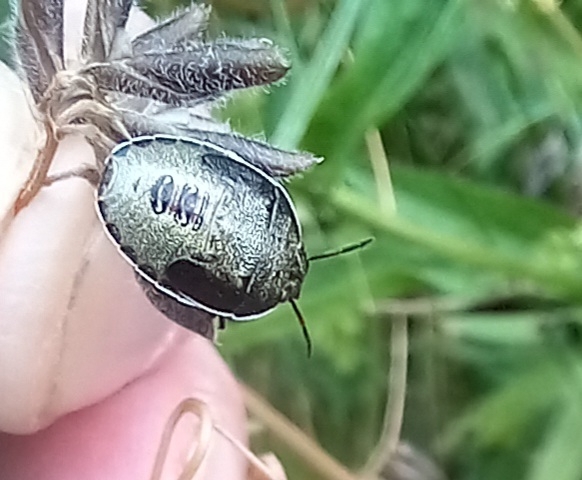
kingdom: Animalia
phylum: Arthropoda
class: Insecta
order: Hemiptera
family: Pentatomidae
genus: Piezodorus
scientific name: Piezodorus lituratus
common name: Stink bug
